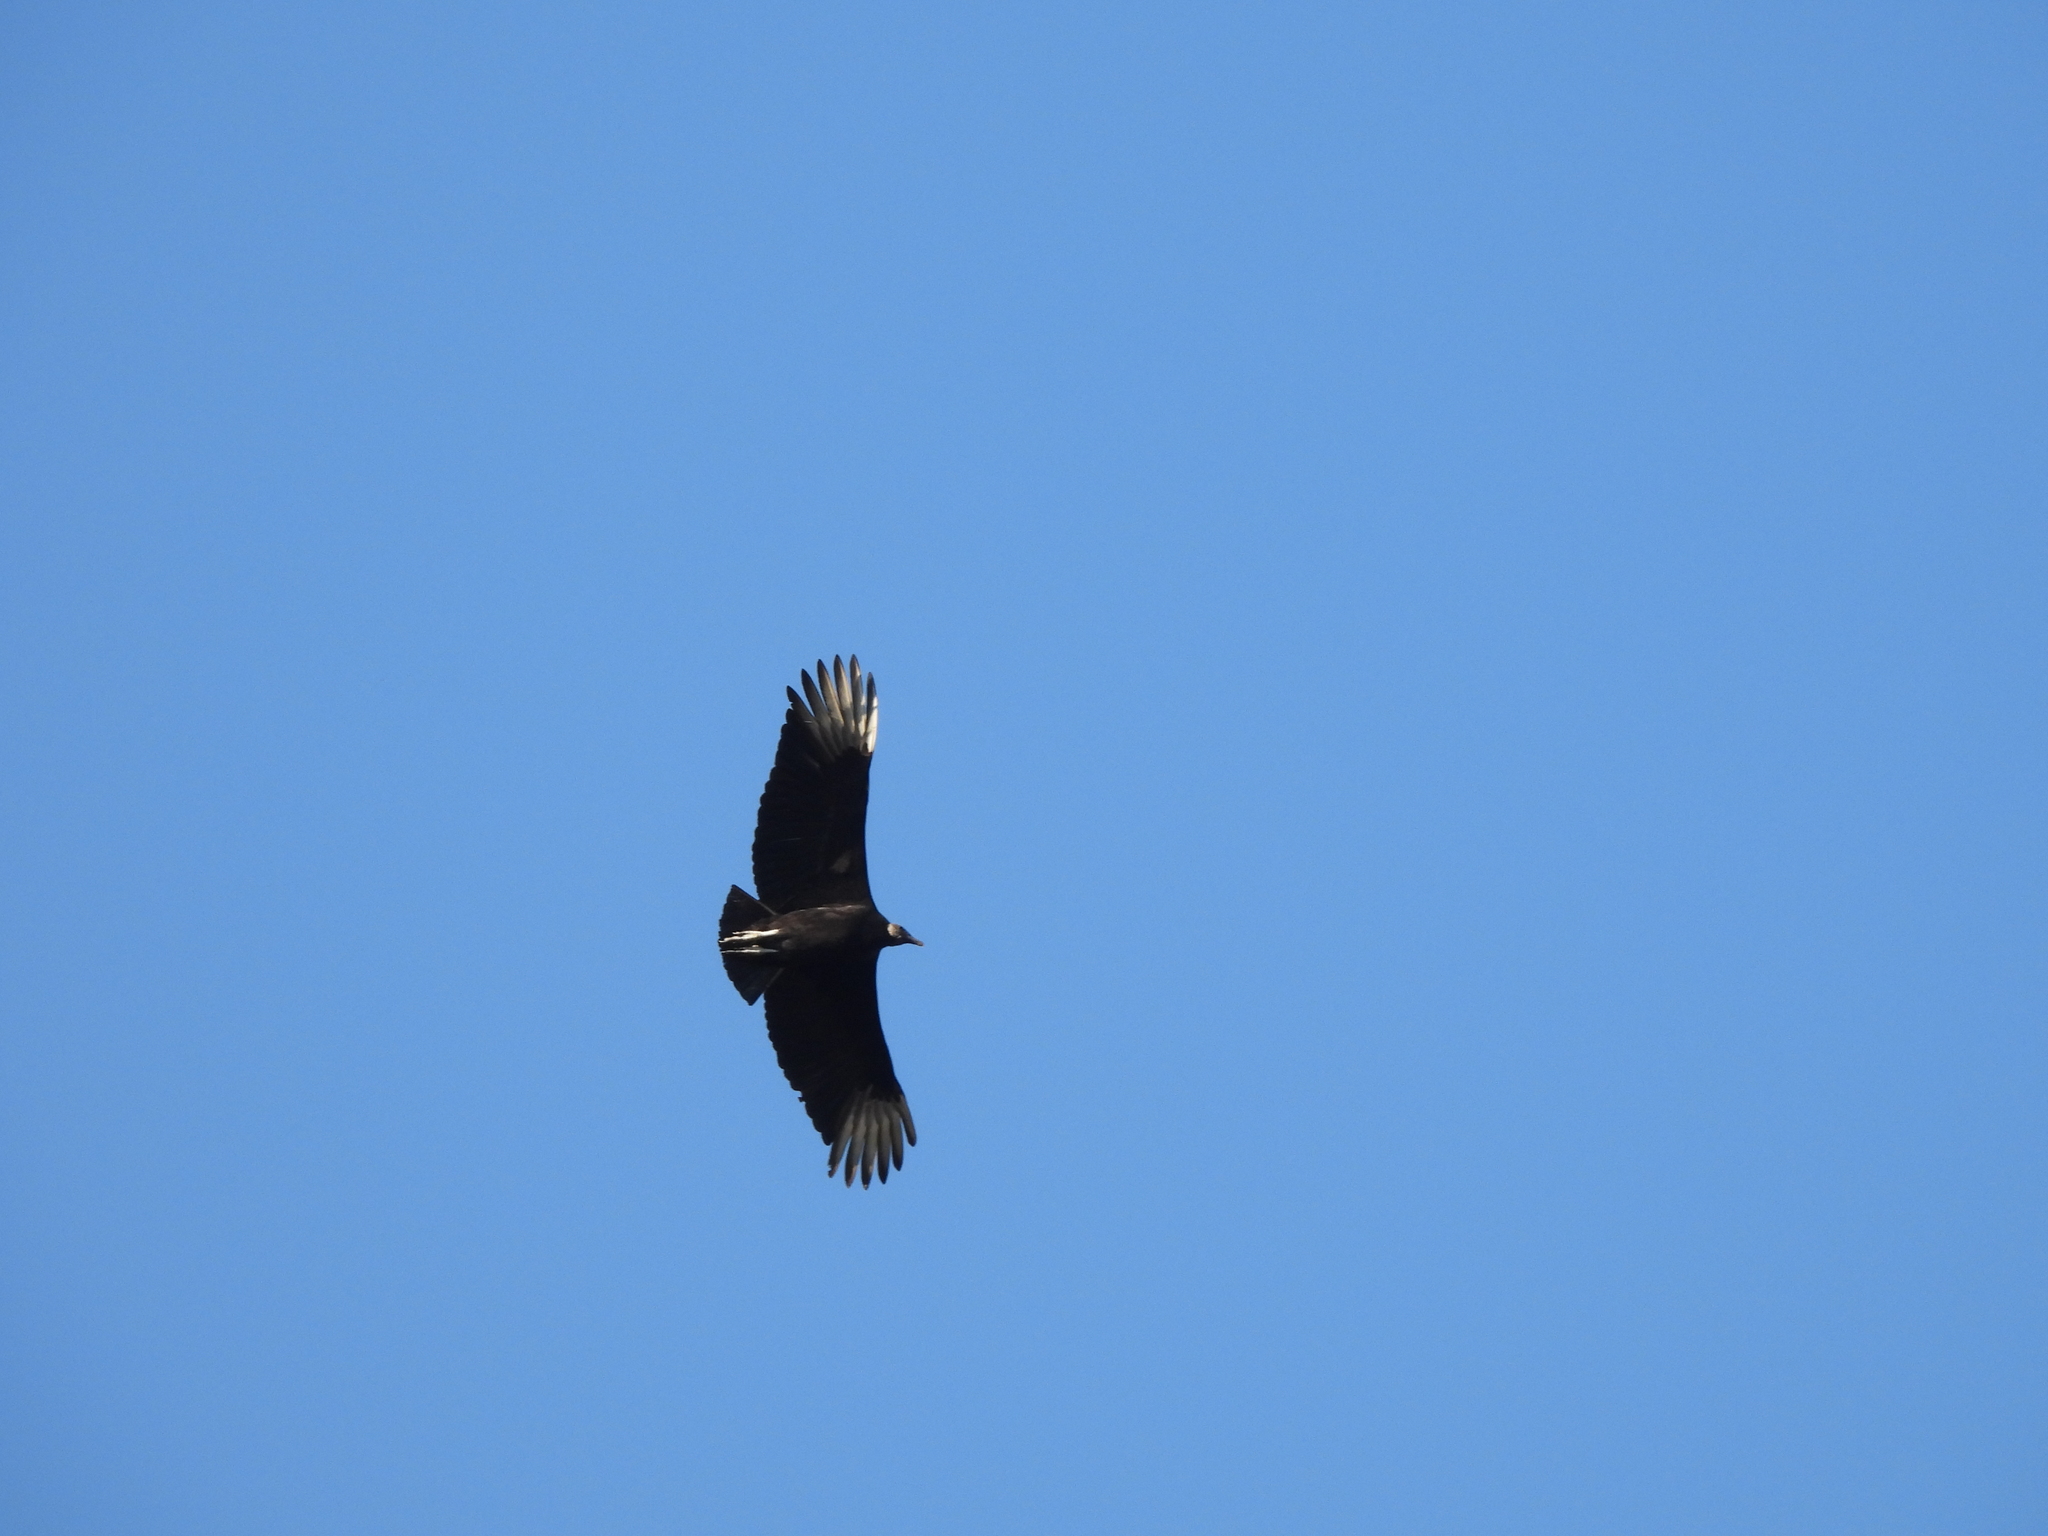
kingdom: Animalia
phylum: Chordata
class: Aves
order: Accipitriformes
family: Cathartidae
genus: Coragyps
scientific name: Coragyps atratus
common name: Black vulture
